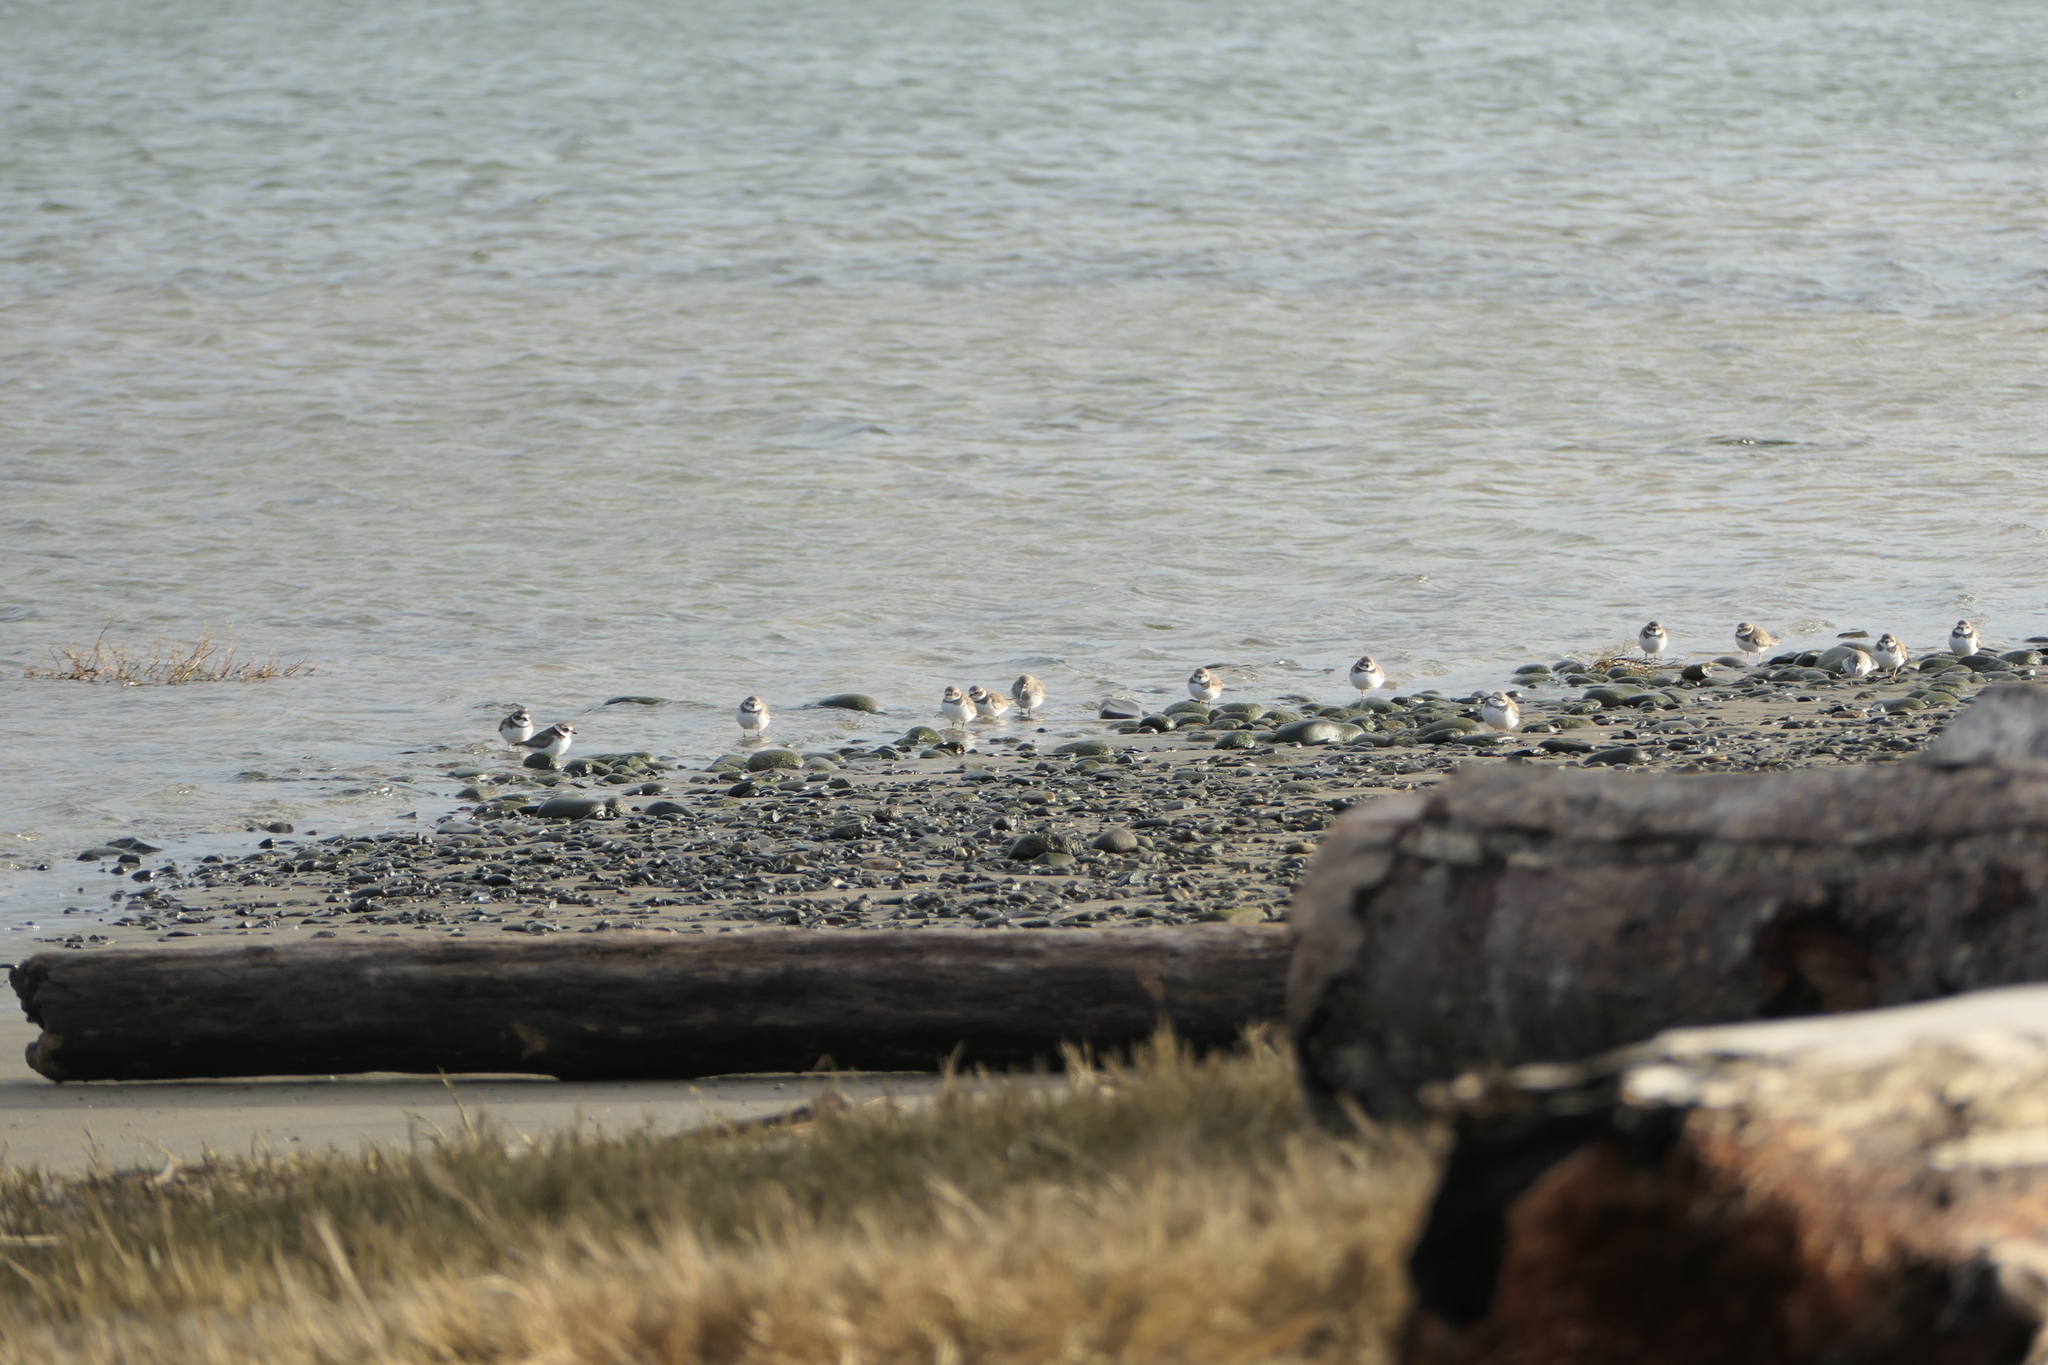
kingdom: Animalia
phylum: Chordata
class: Aves
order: Charadriiformes
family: Charadriidae
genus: Charadrius
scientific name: Charadrius semipalmatus
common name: Semipalmated plover
